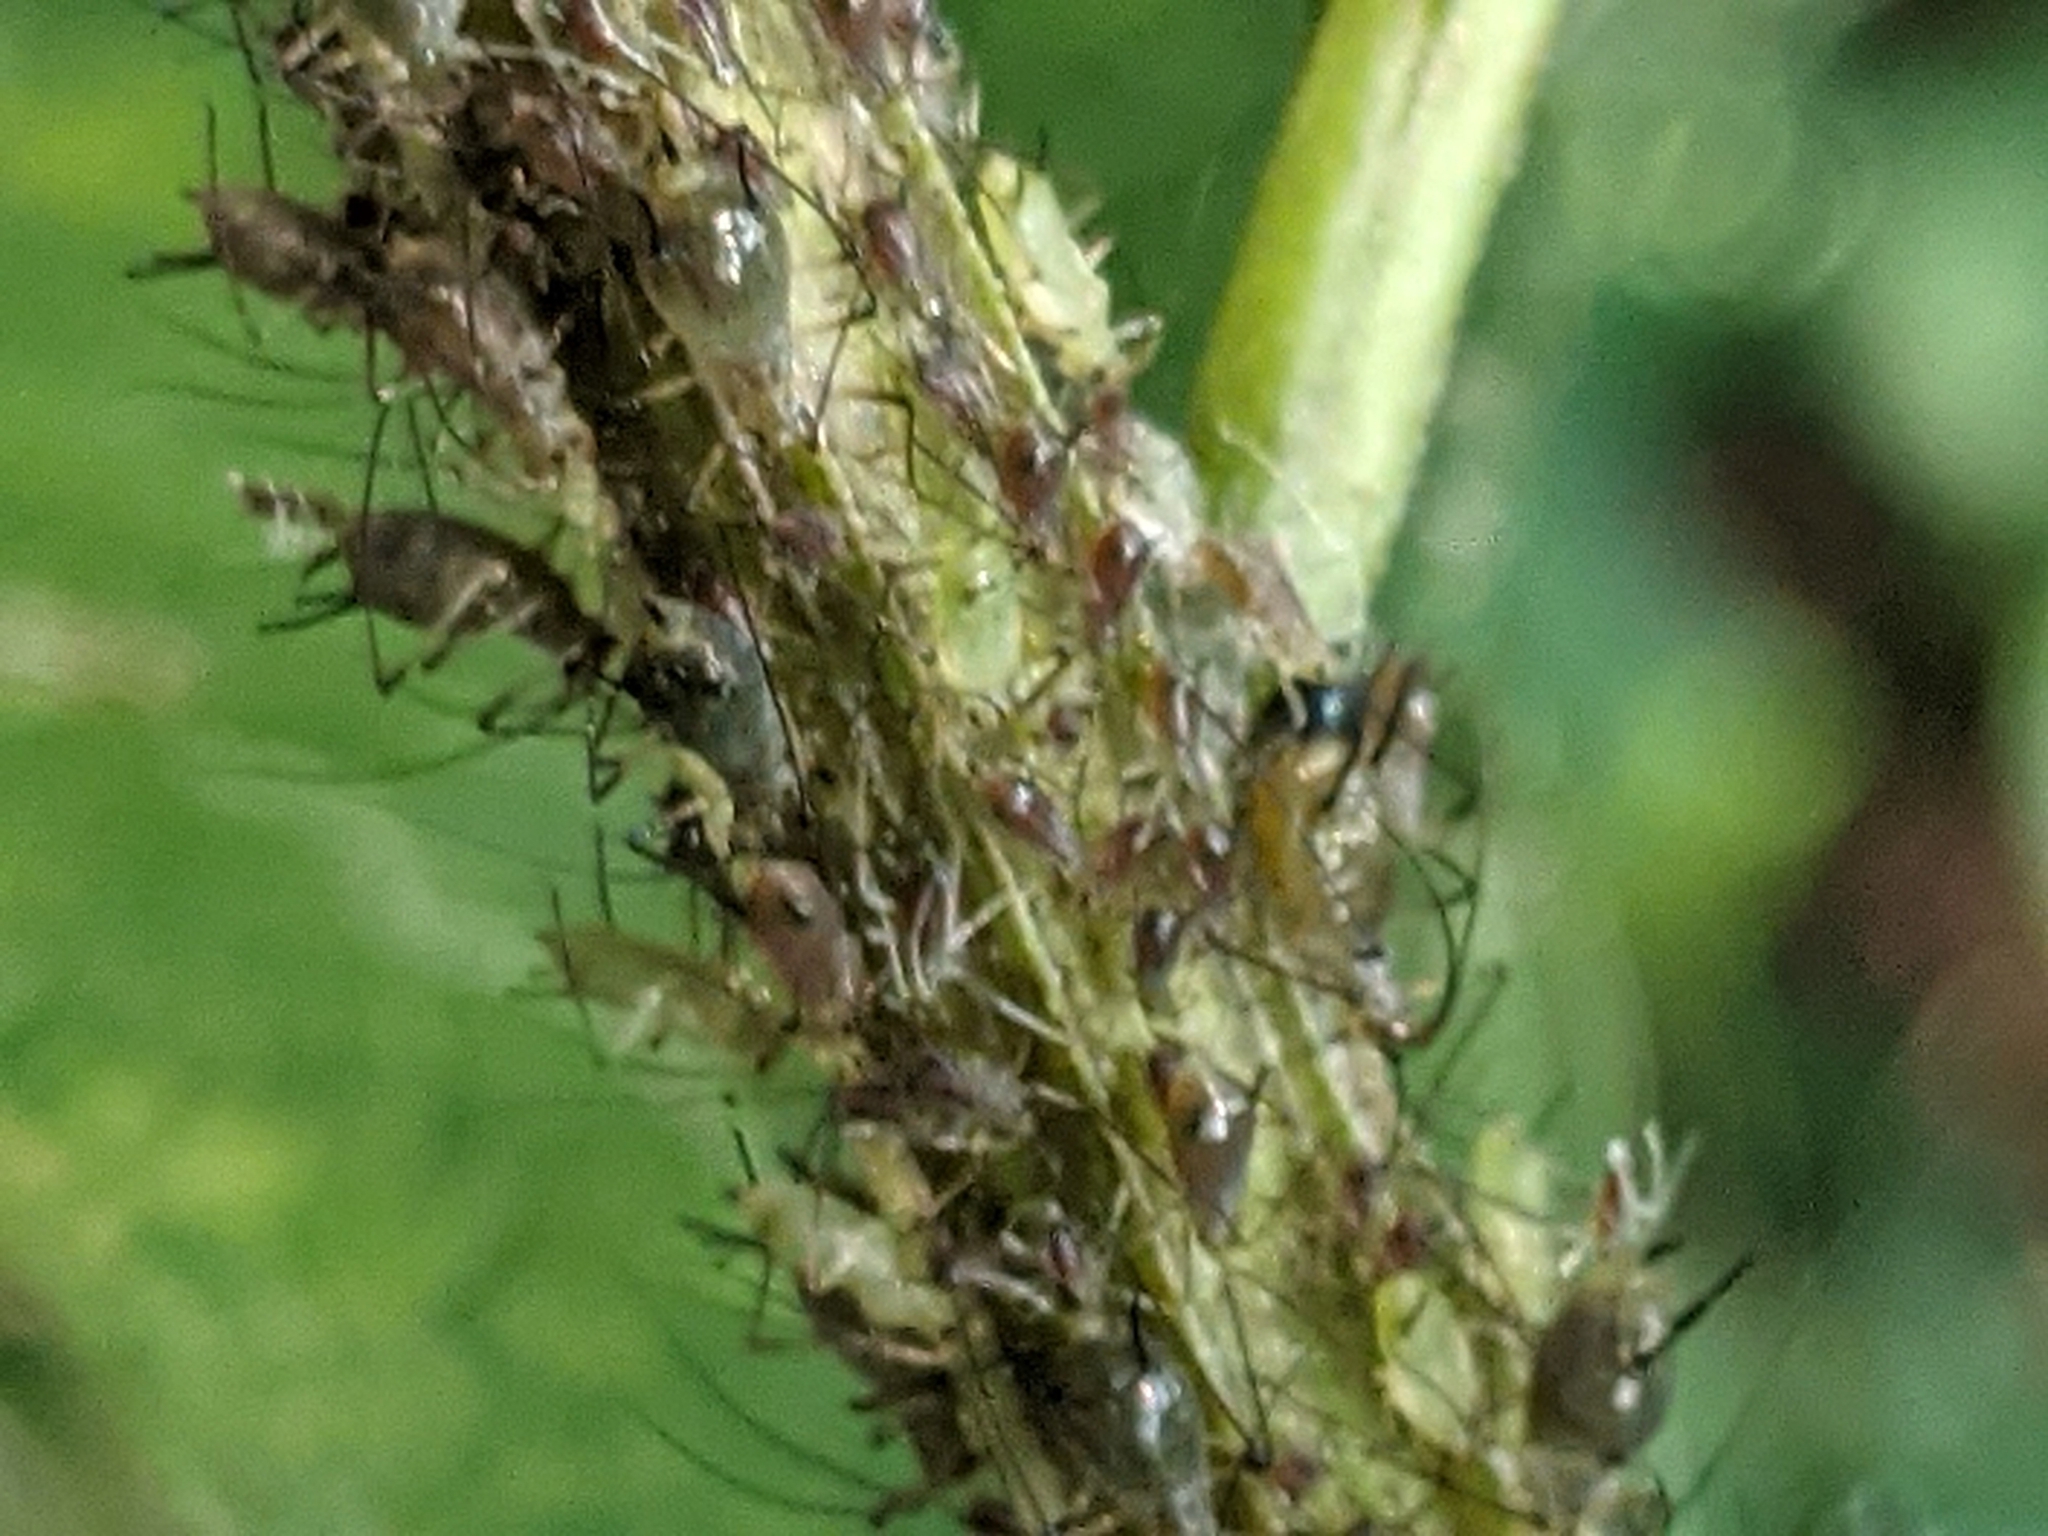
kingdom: Animalia
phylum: Arthropoda
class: Insecta
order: Hemiptera
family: Aphididae
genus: Uroleucon
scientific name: Uroleucon rurale
